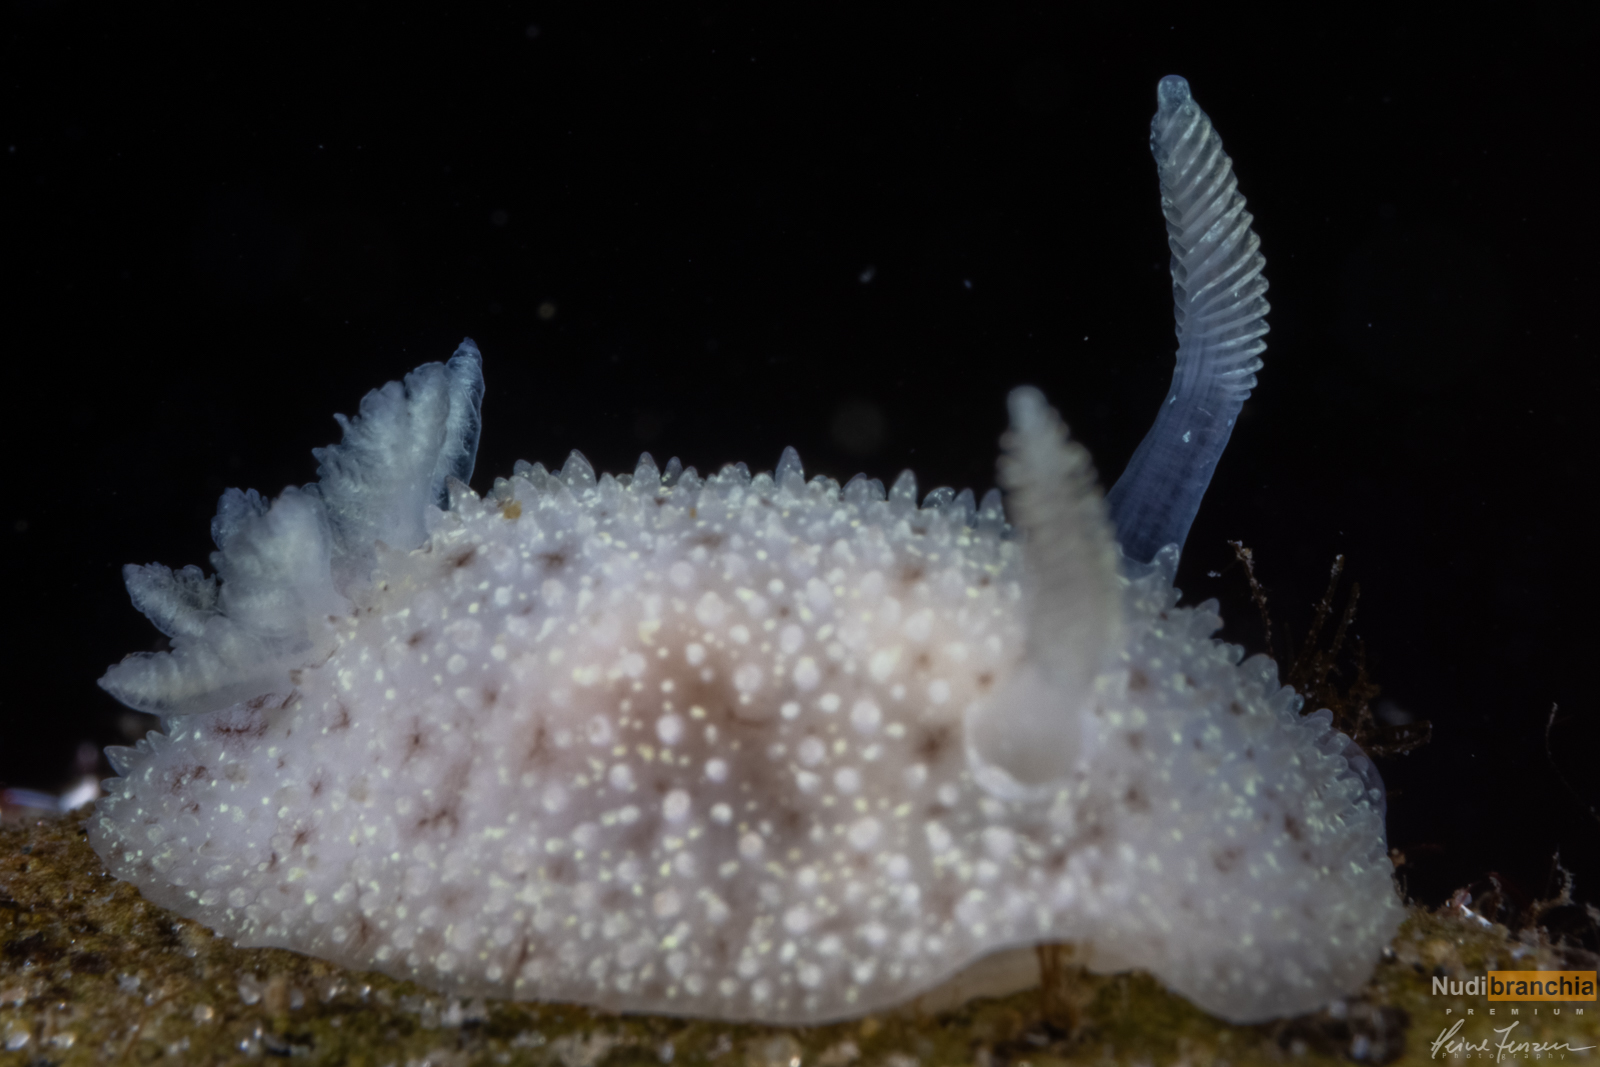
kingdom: Animalia
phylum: Mollusca
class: Gastropoda
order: Nudibranchia
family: Onchidorididae
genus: Acanthodoris
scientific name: Acanthodoris pilosa
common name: Hairy spiny doris
